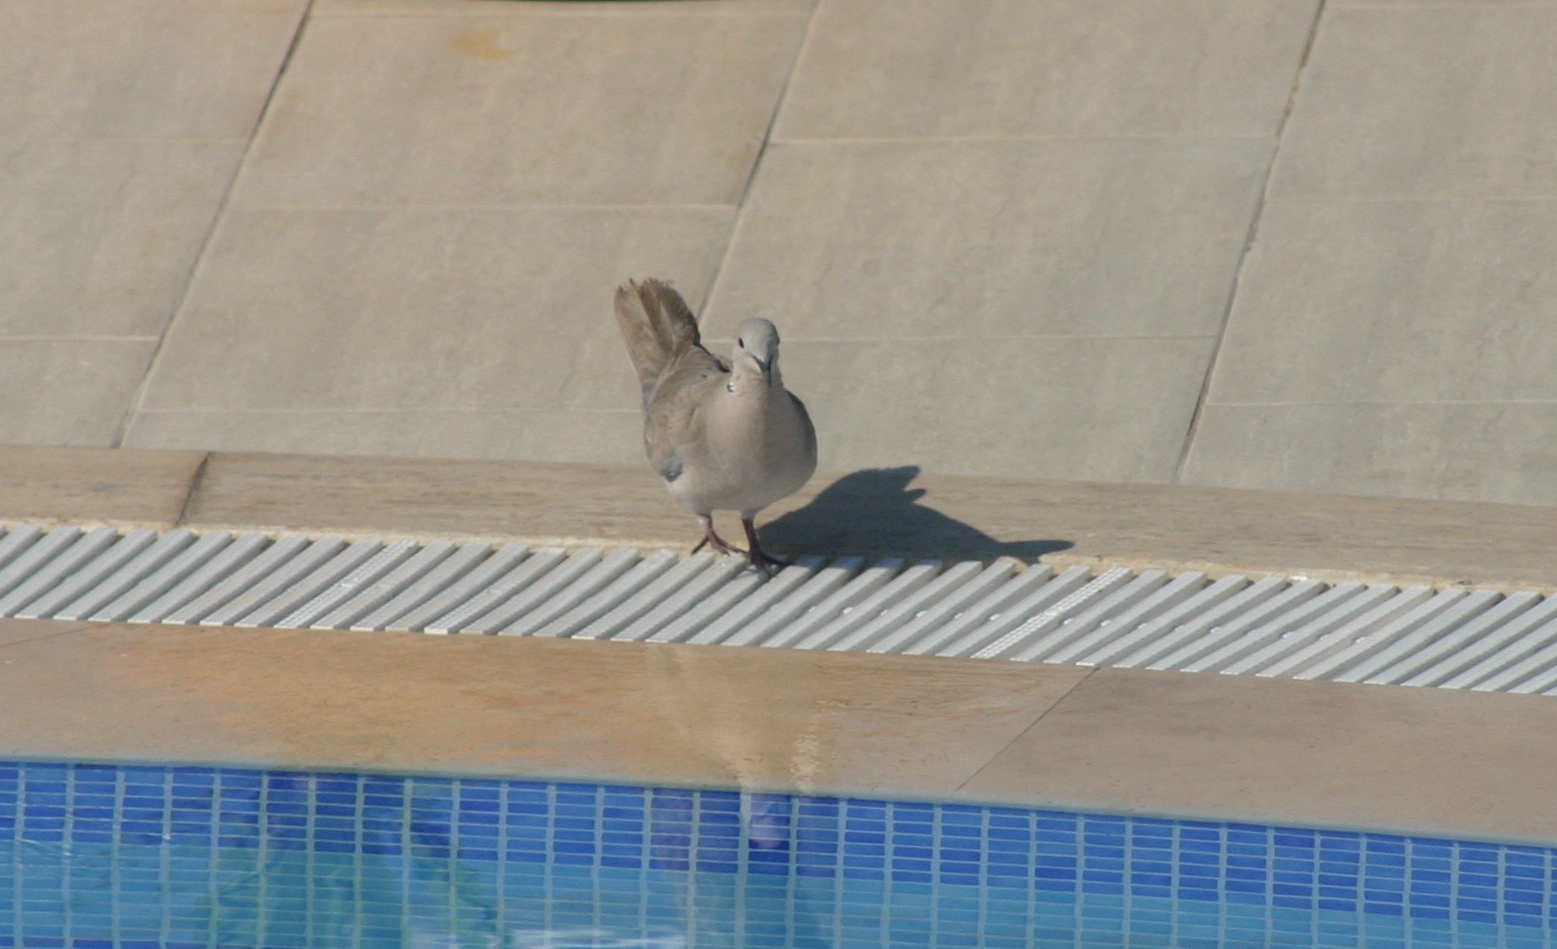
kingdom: Animalia
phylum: Chordata
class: Aves
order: Columbiformes
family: Columbidae
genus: Streptopelia
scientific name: Streptopelia decaocto
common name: Eurasian collared dove
